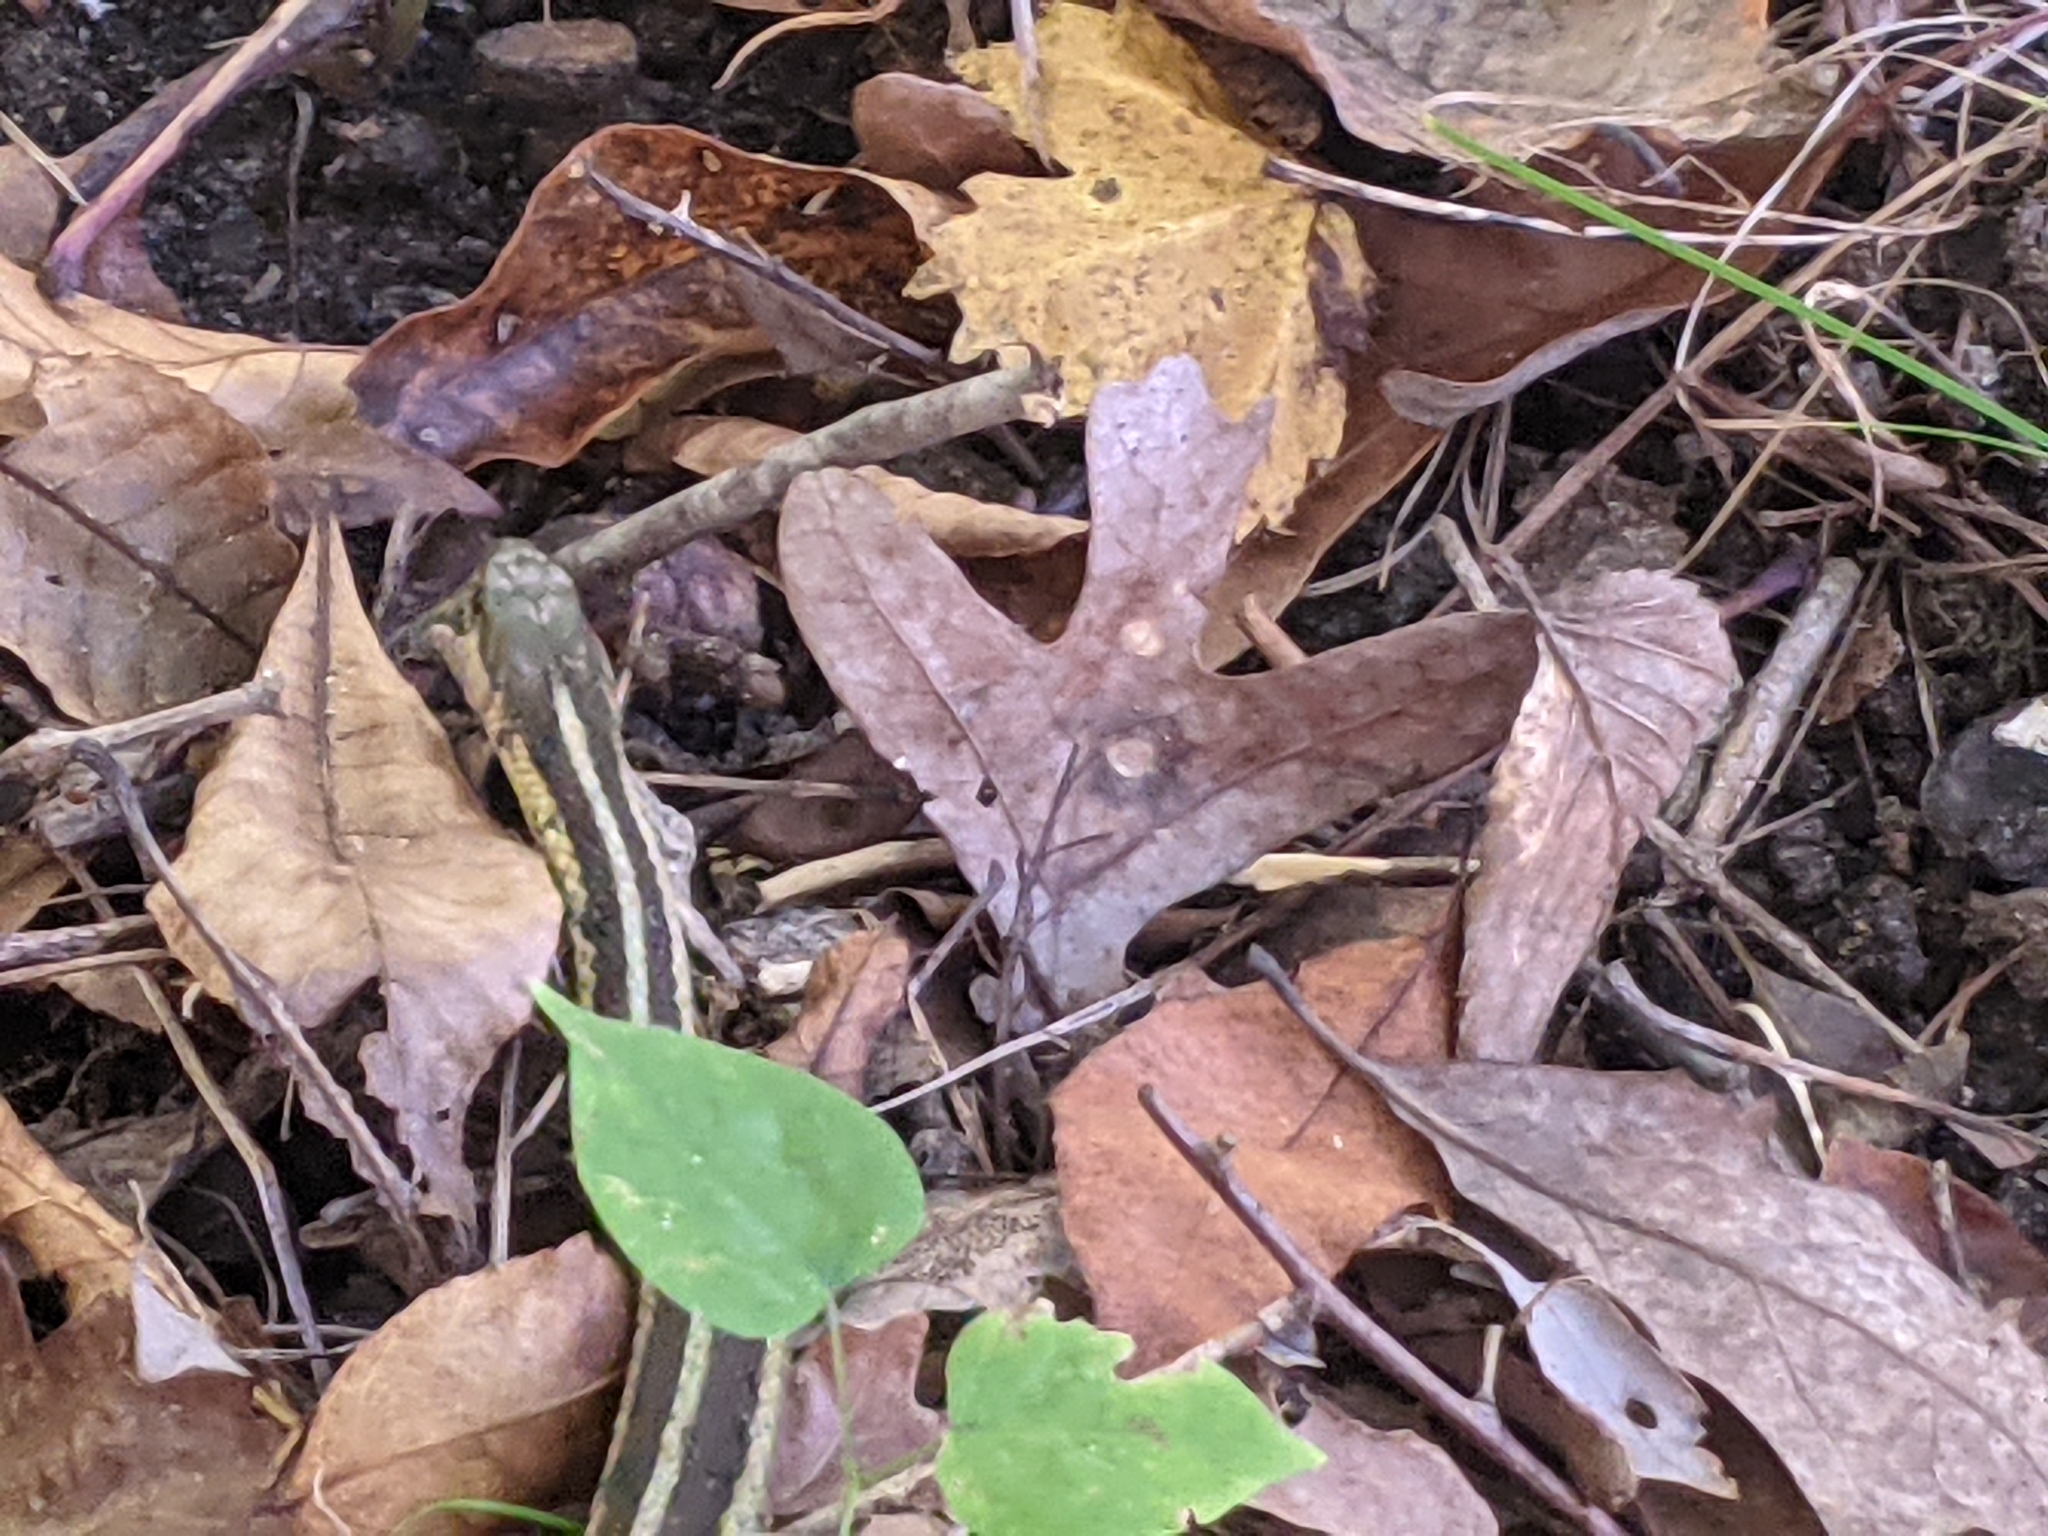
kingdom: Animalia
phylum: Chordata
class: Squamata
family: Colubridae
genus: Thamnophis
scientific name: Thamnophis sirtalis
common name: Common garter snake
